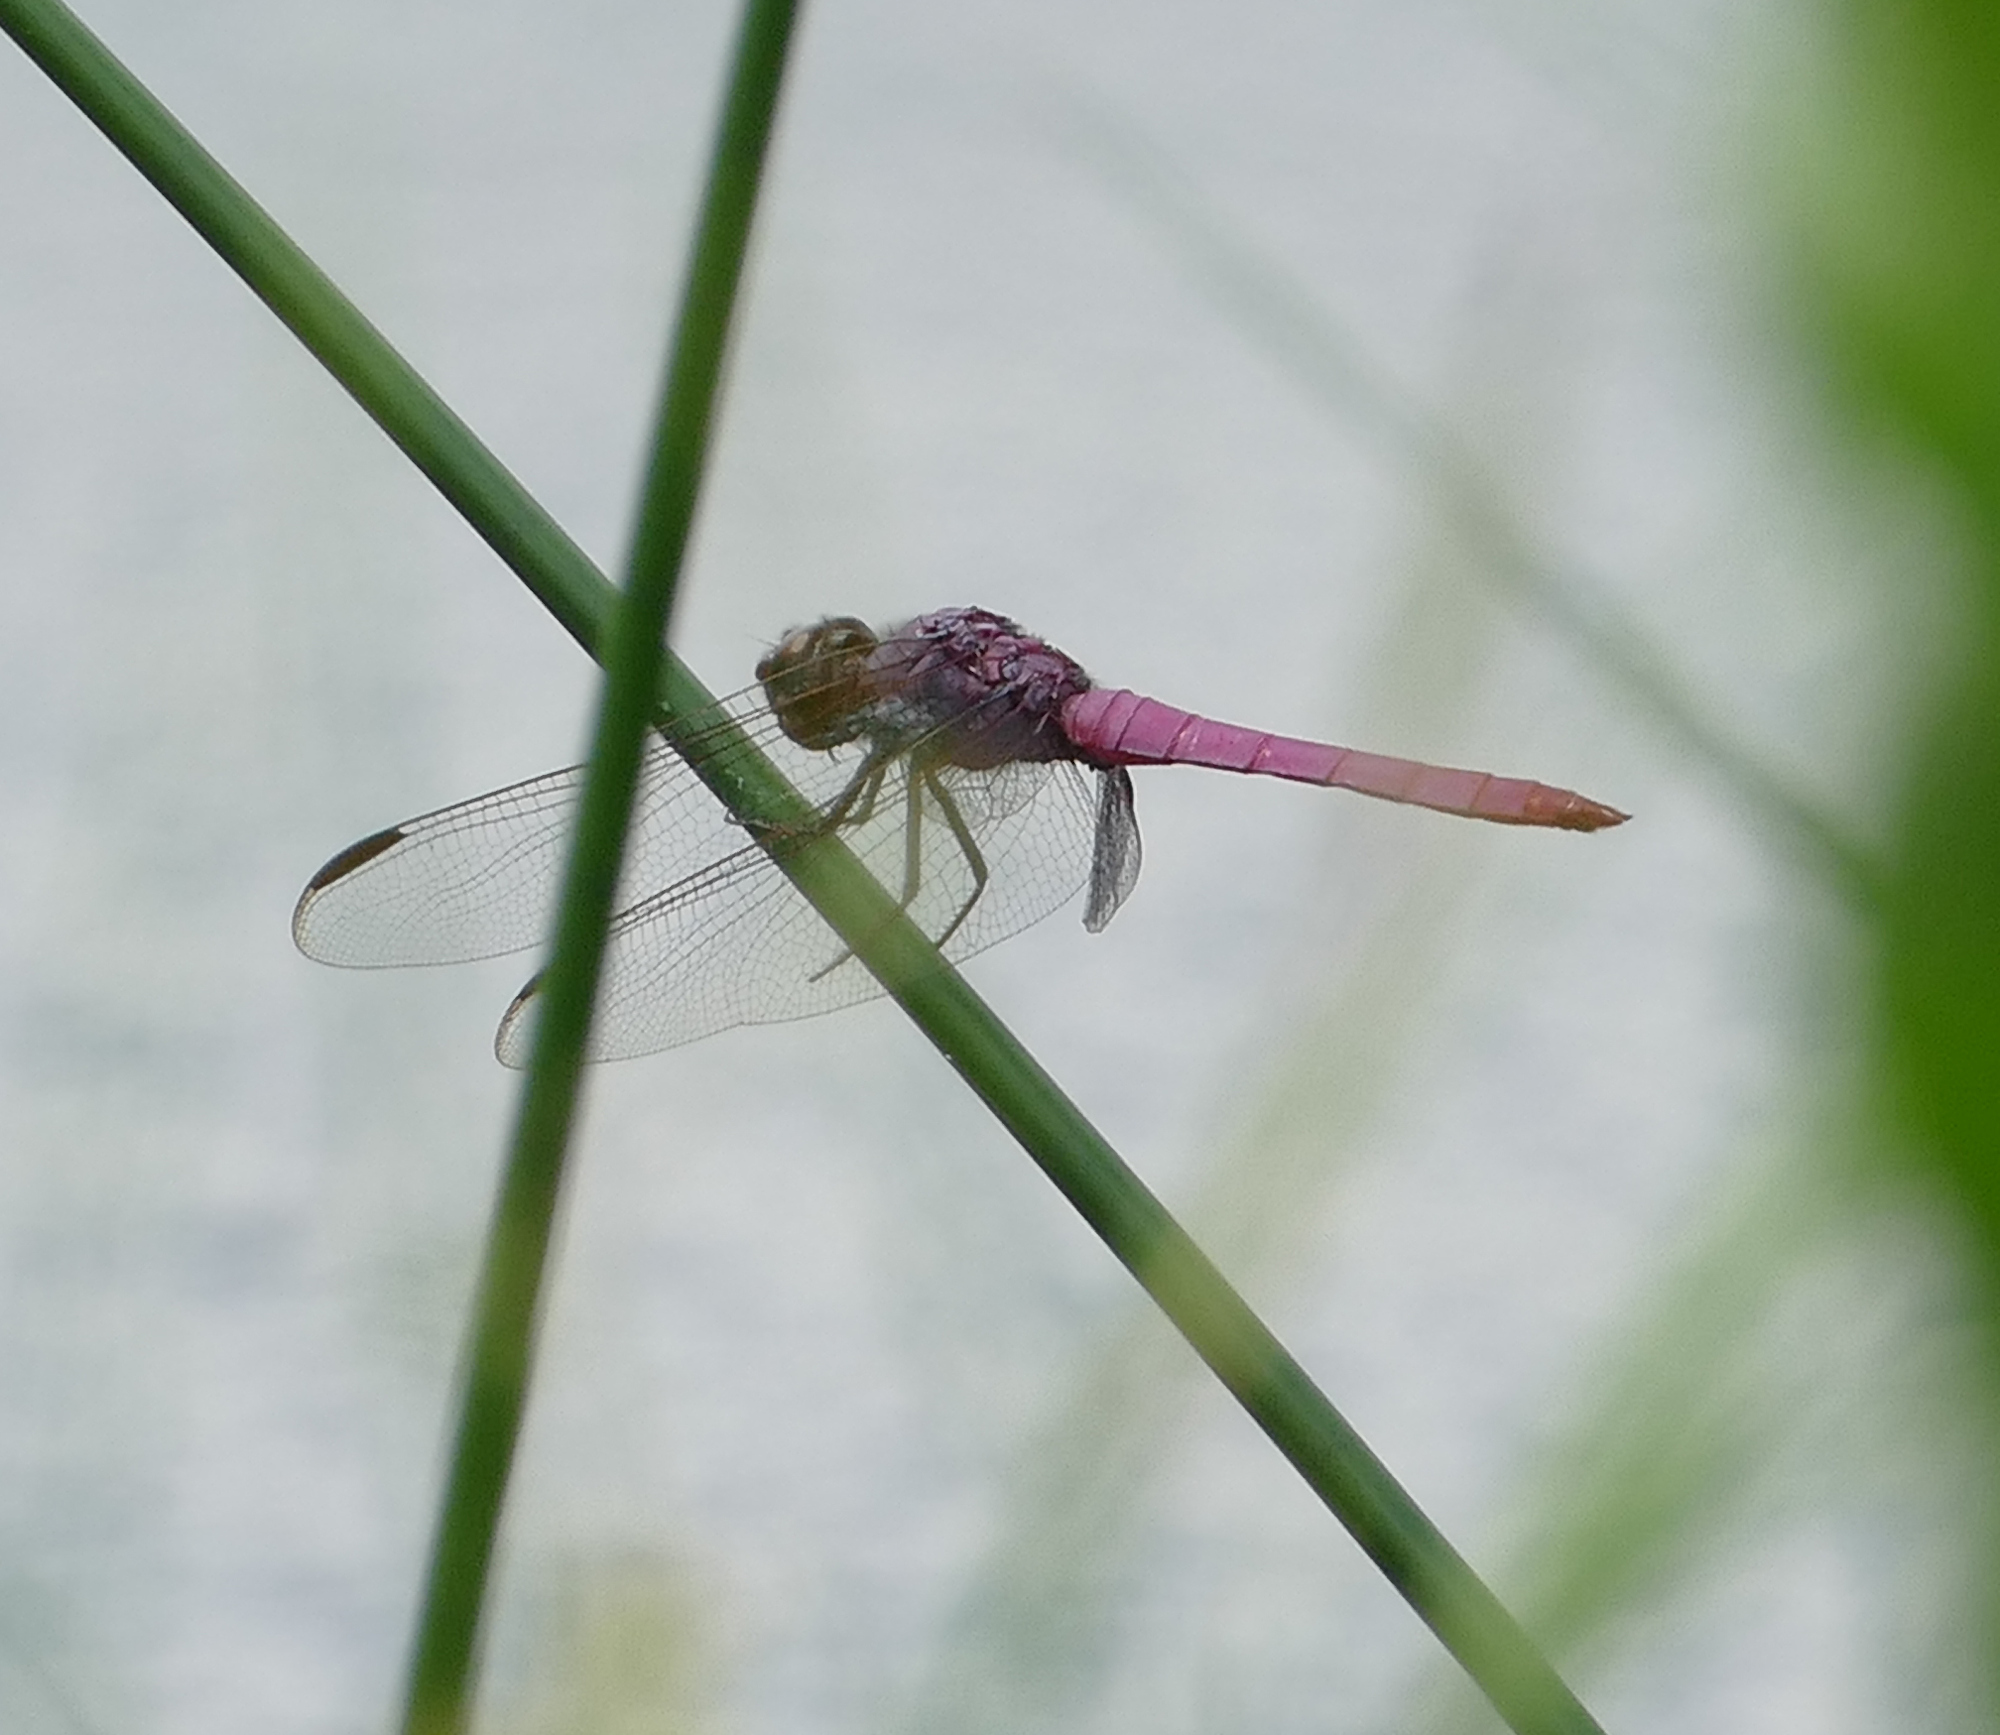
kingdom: Animalia
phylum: Arthropoda
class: Insecta
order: Odonata
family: Libellulidae
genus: Orthemis
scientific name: Orthemis ferruginea
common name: Roseate skimmer
